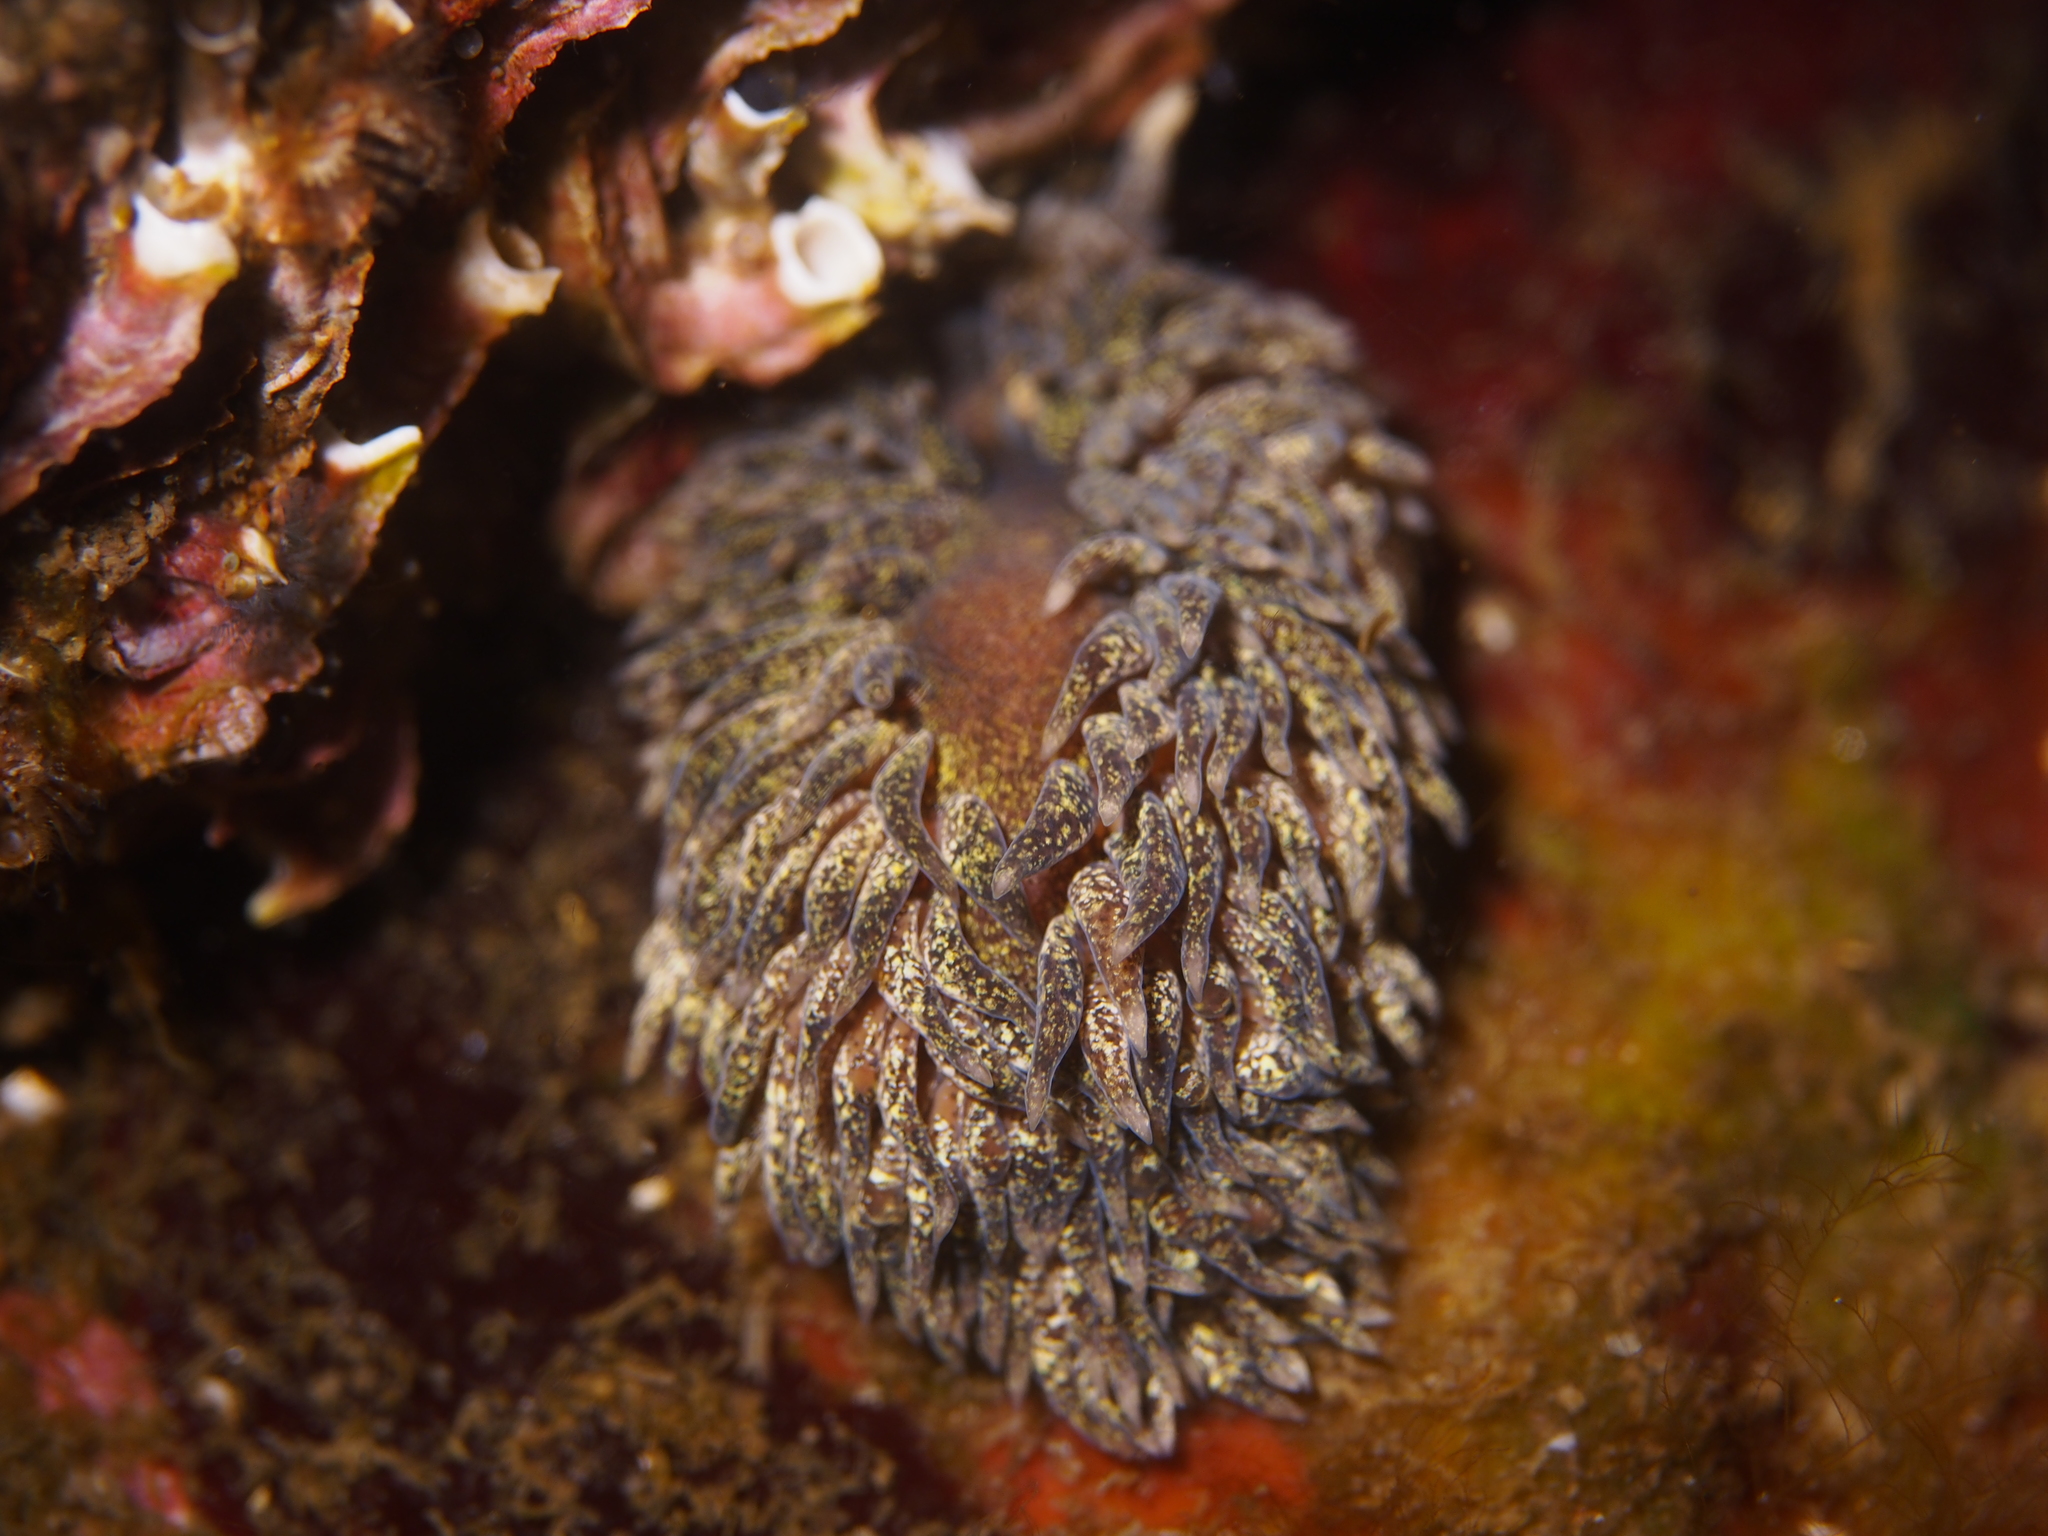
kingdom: Animalia
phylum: Mollusca
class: Gastropoda
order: Nudibranchia
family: Aeolidiidae
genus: Aeolidia
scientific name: Aeolidia papillosa
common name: Common grey sea slug
